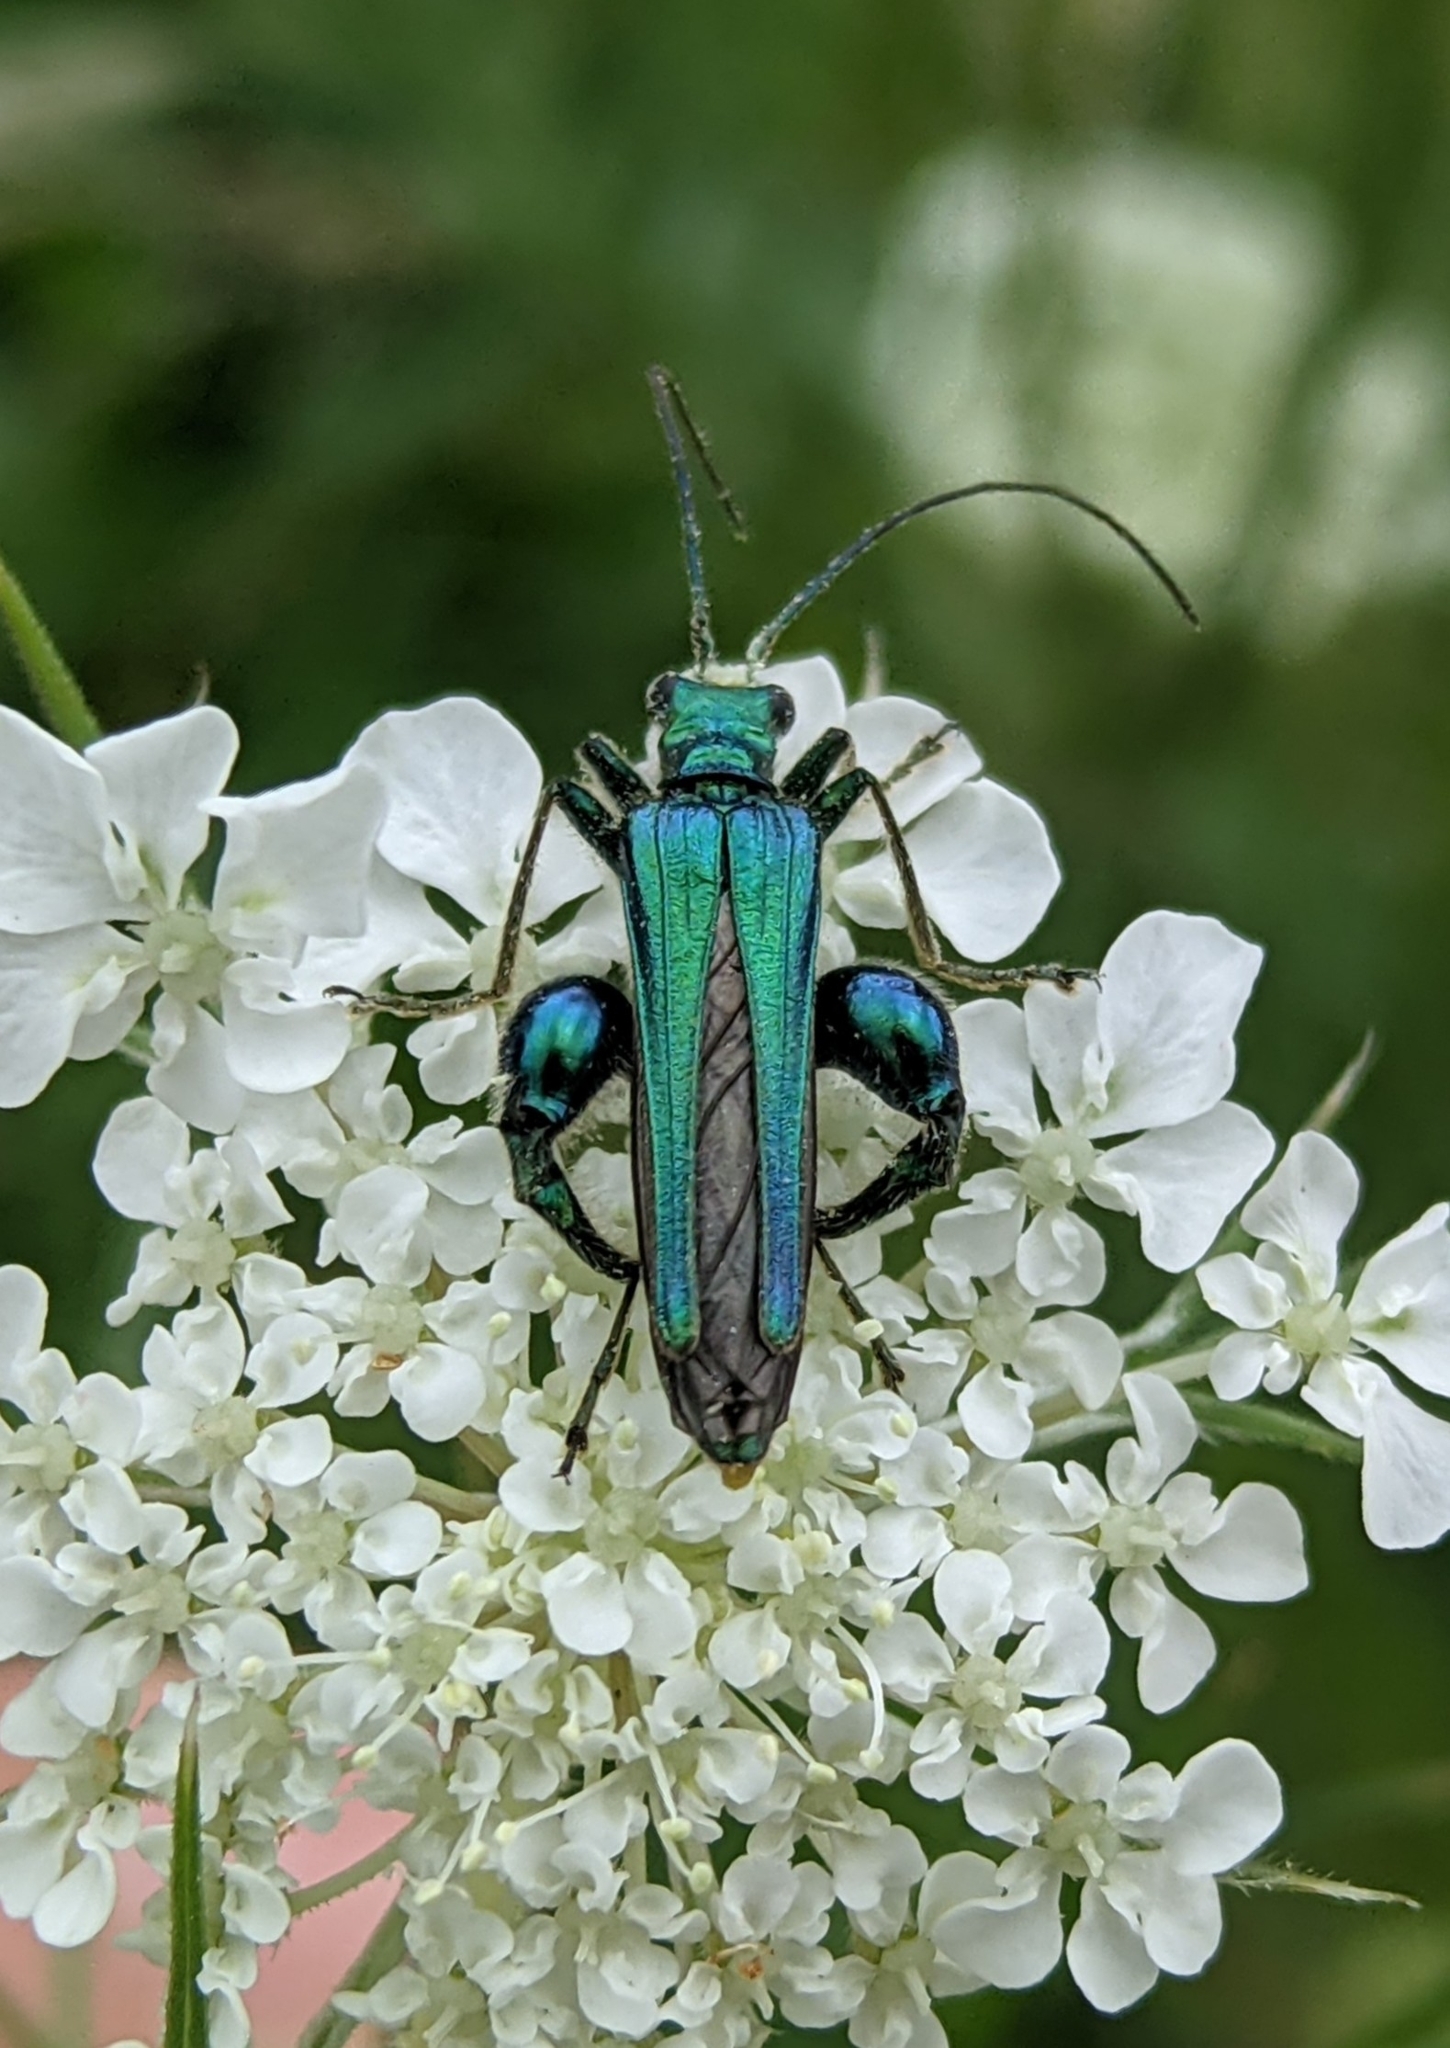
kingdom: Animalia
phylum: Arthropoda
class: Insecta
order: Coleoptera
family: Oedemeridae
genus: Oedemera
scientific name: Oedemera nobilis
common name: Swollen-thighed beetle
